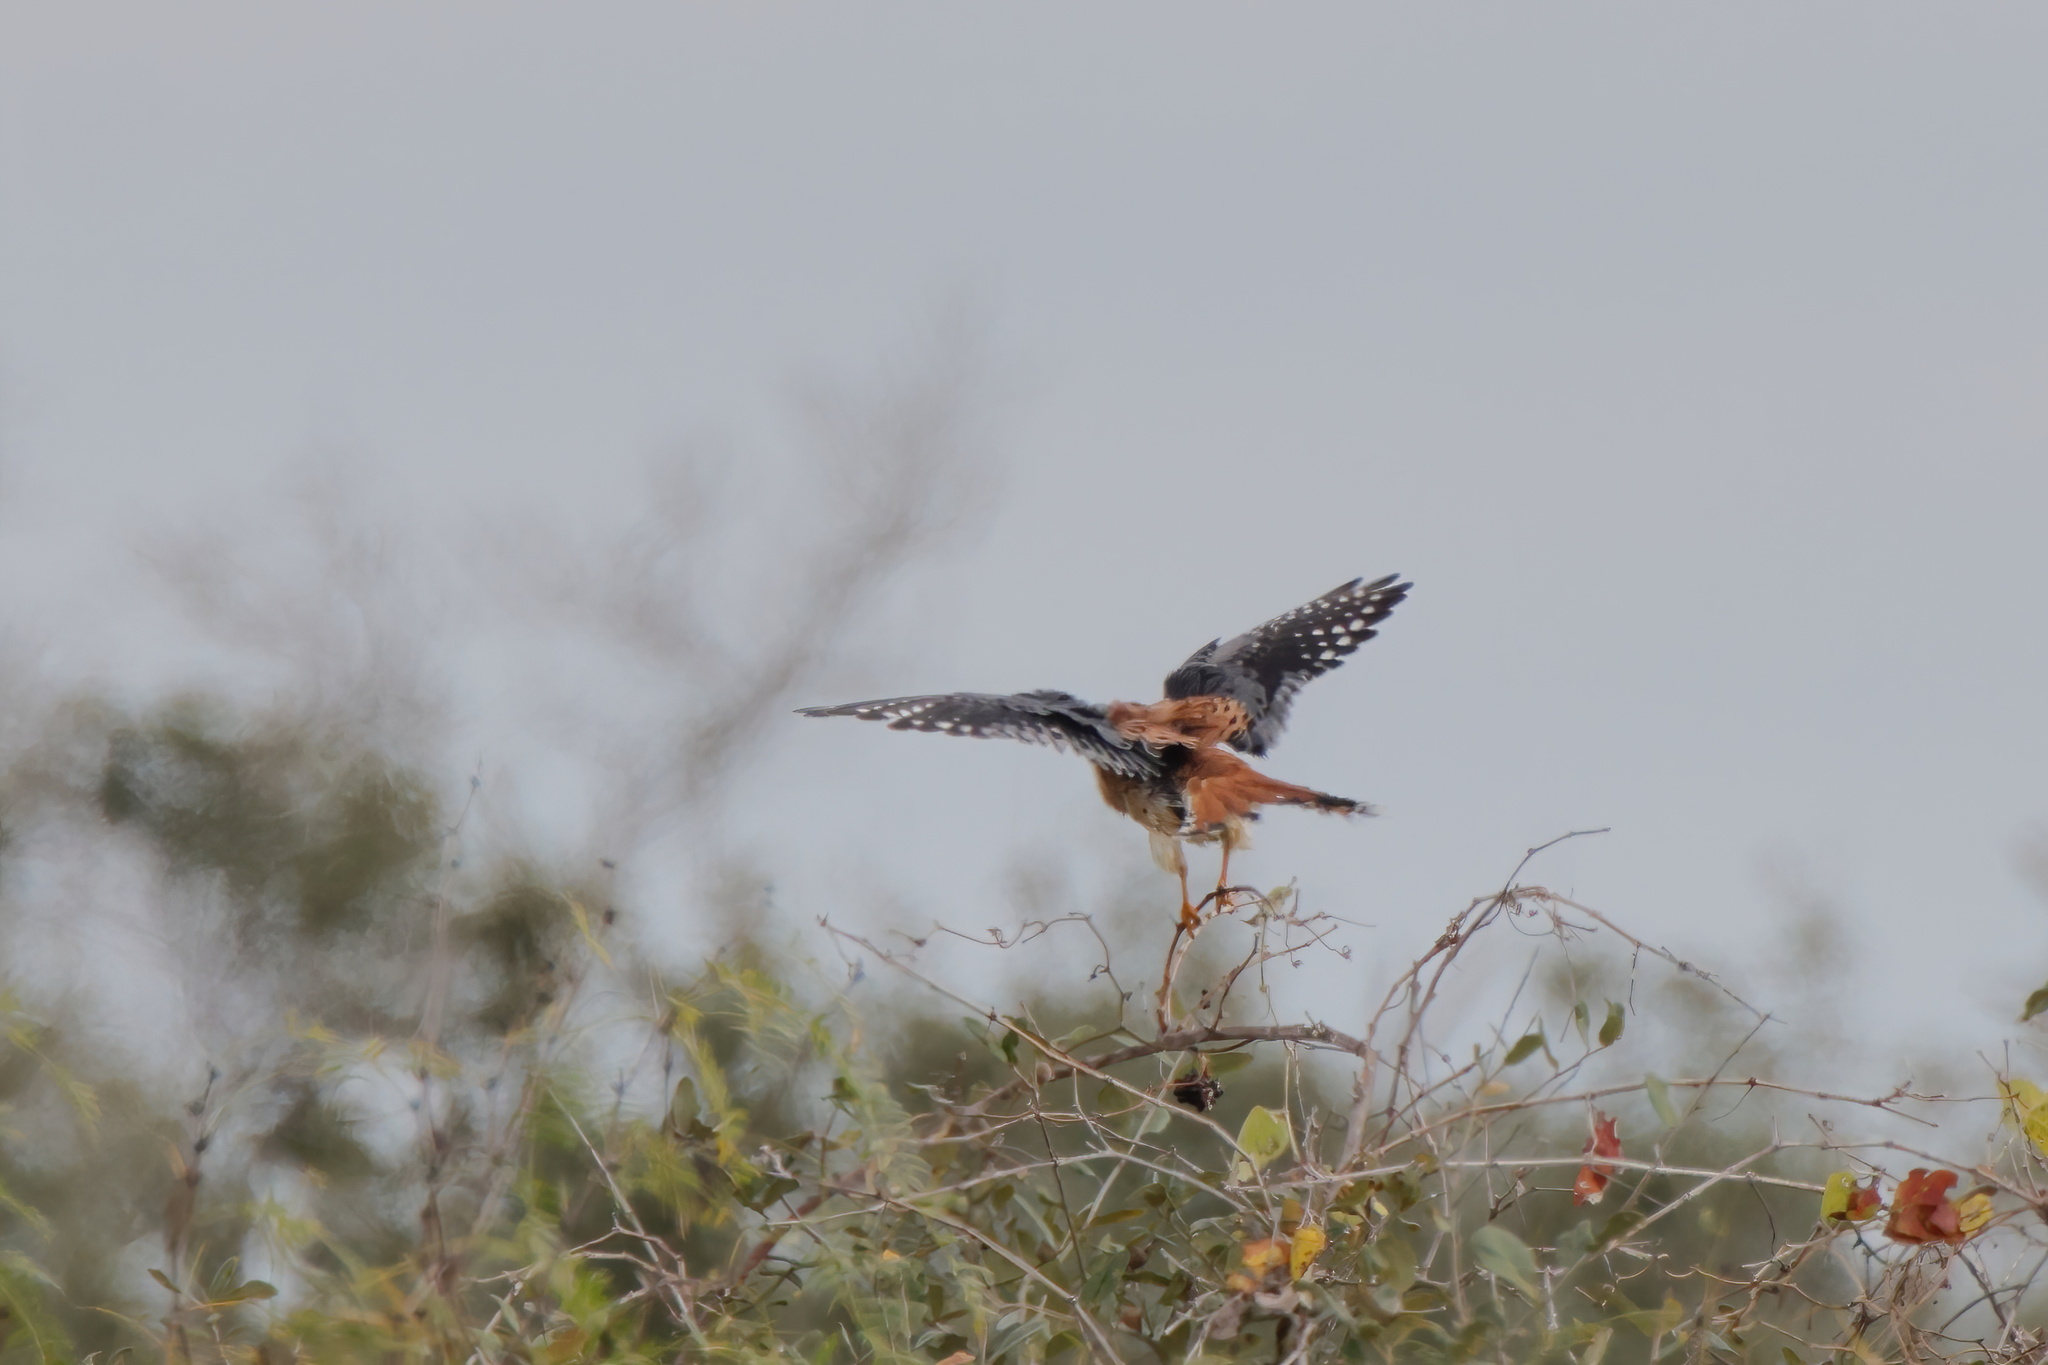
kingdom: Animalia
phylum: Chordata
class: Aves
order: Falconiformes
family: Falconidae
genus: Falco
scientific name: Falco sparverius
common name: American kestrel
